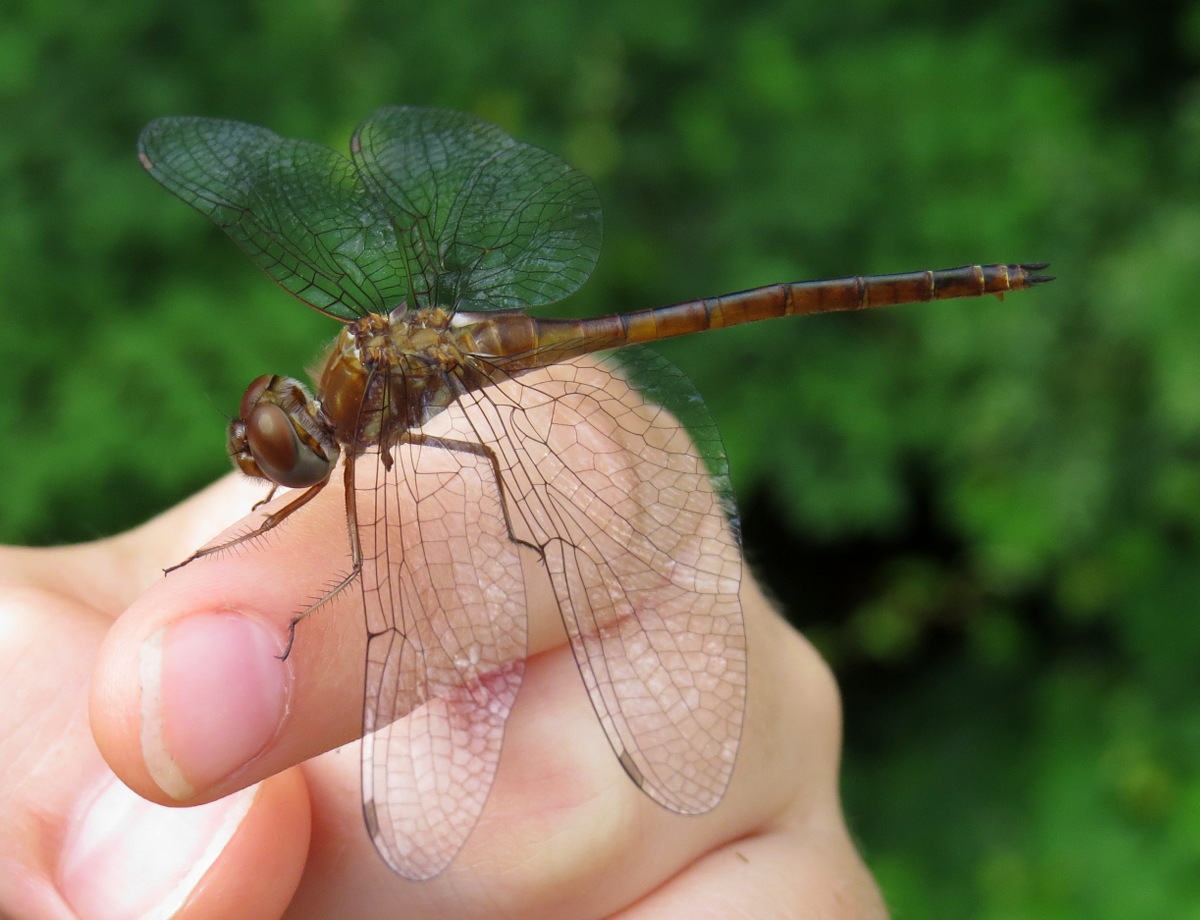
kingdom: Animalia
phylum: Arthropoda
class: Insecta
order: Odonata
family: Corduliidae
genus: Somatochlora
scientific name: Somatochlora georgiana
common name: Coppery emerald
